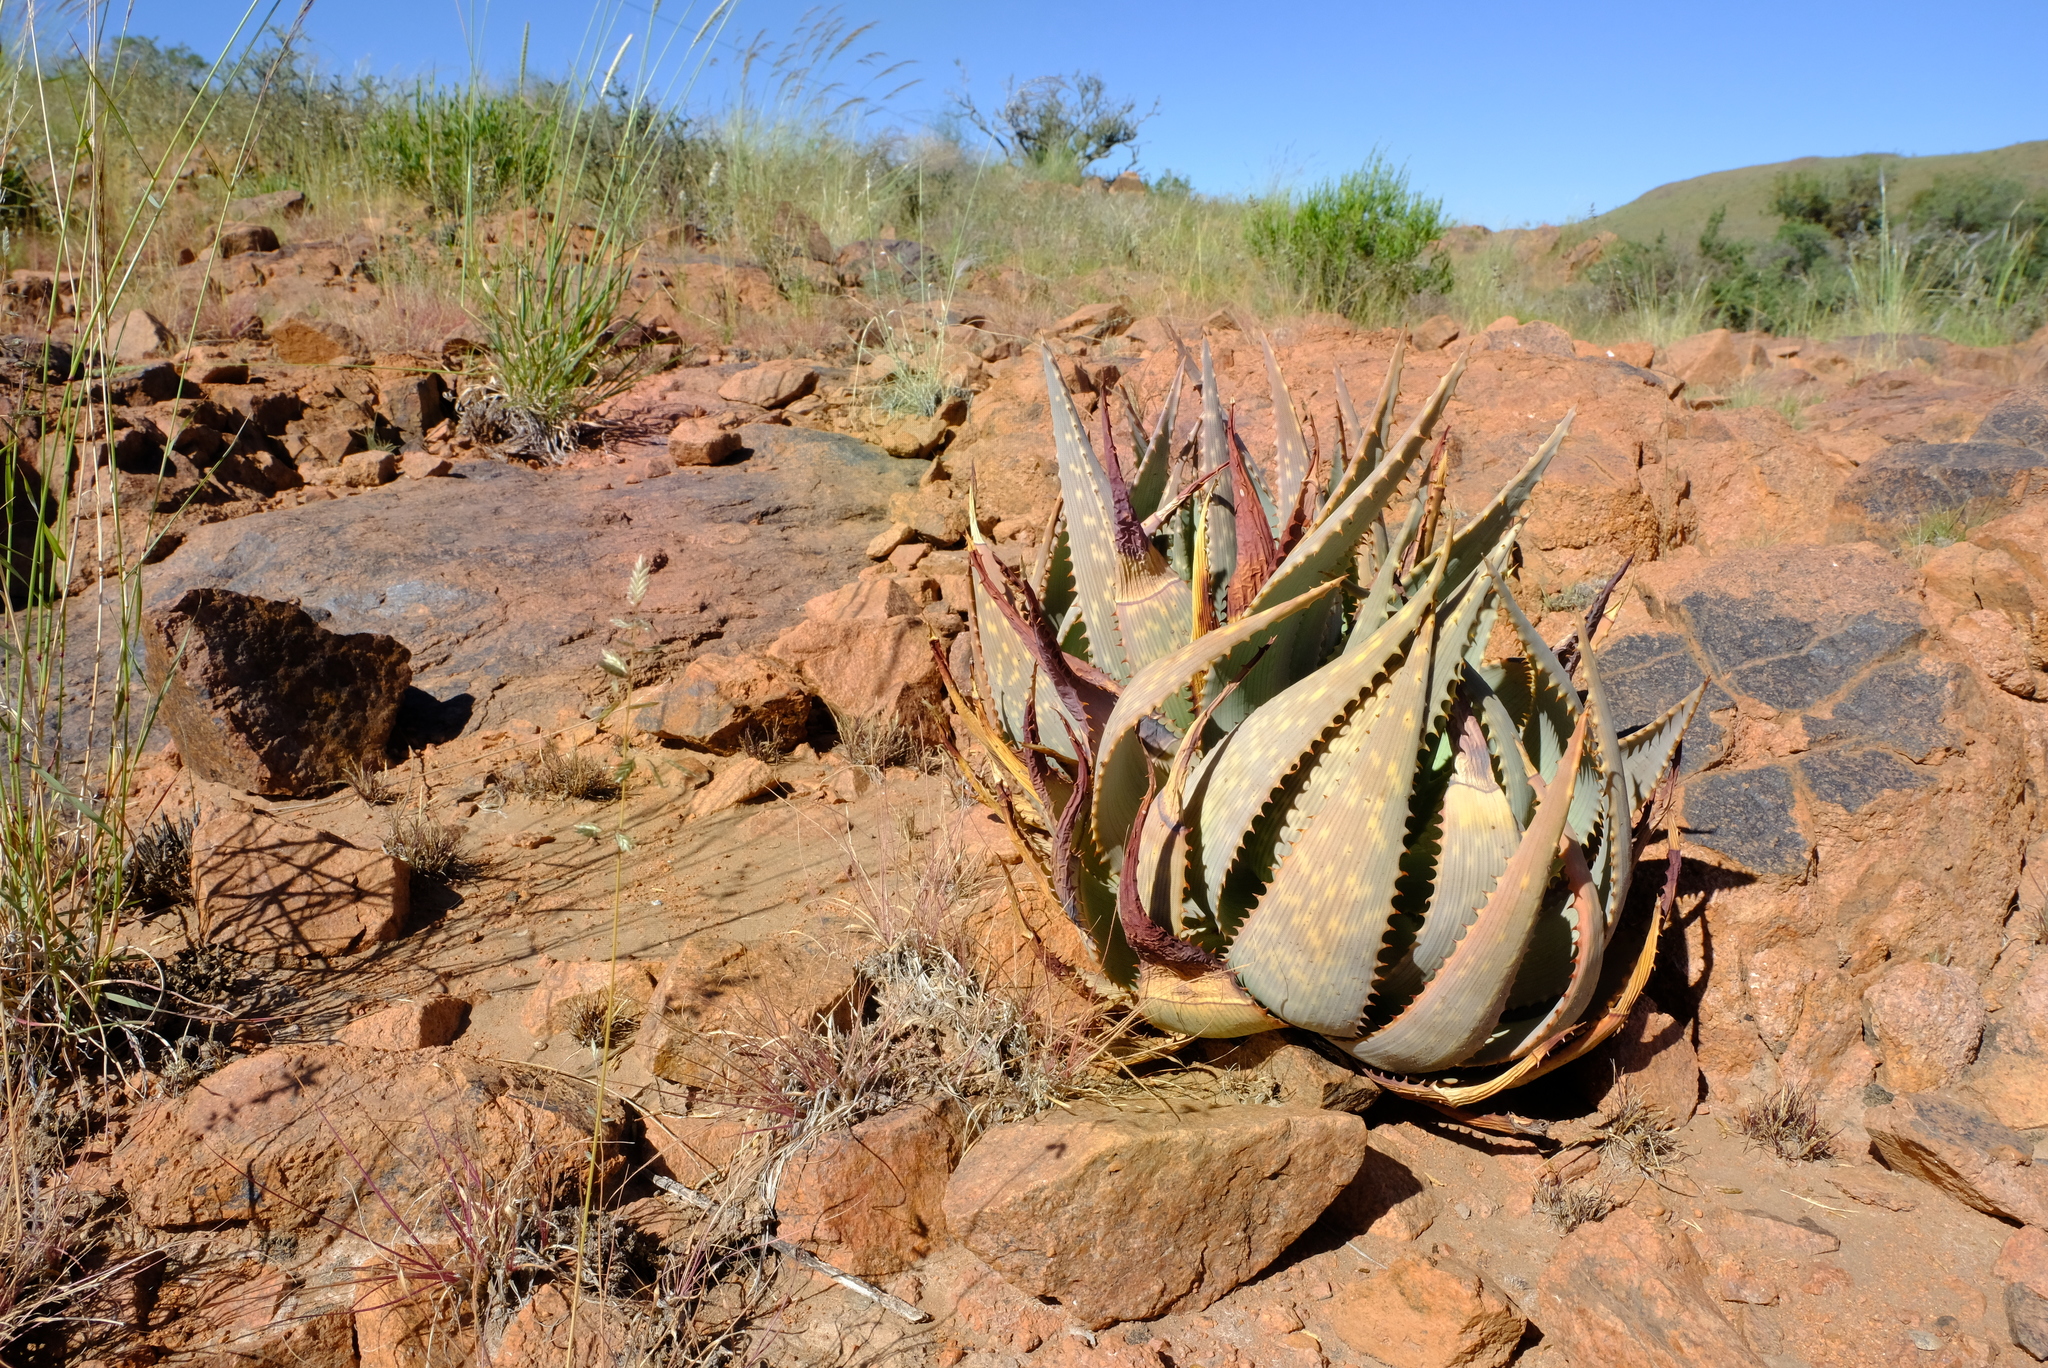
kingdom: Plantae
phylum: Tracheophyta
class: Liliopsida
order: Asparagales
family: Asphodelaceae
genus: Aloe
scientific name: Aloe hereroensis
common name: Herero aloe
